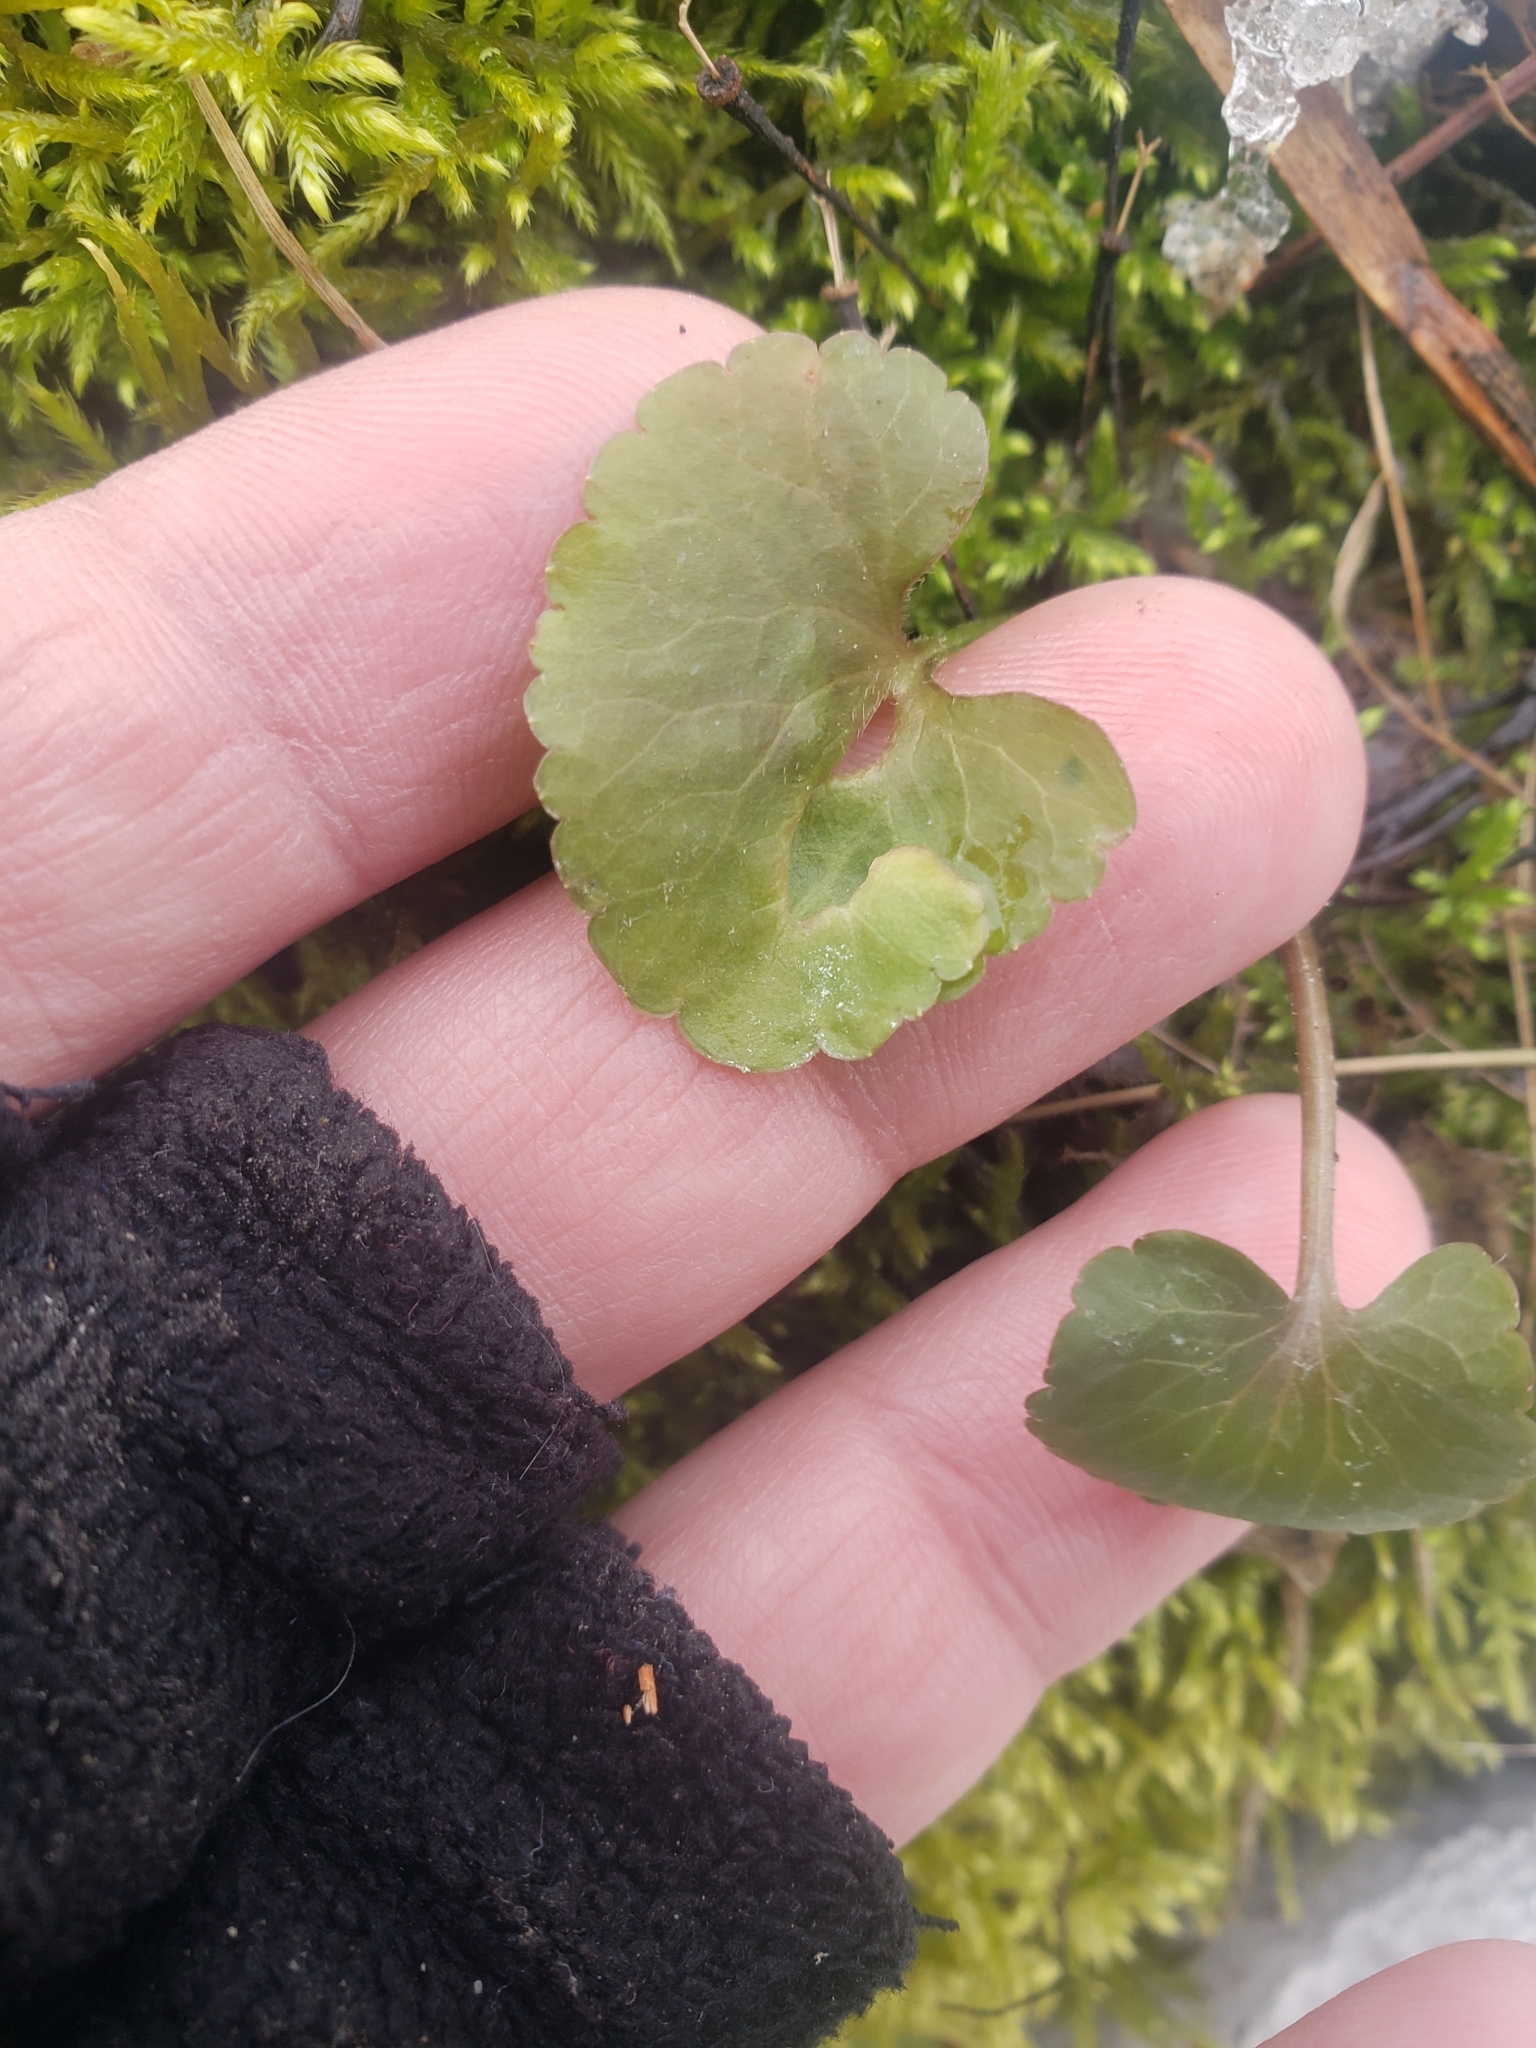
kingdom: Plantae
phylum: Tracheophyta
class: Magnoliopsida
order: Ranunculales
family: Ranunculaceae
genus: Ranunculus
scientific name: Ranunculus abortivus
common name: Early wood buttercup
